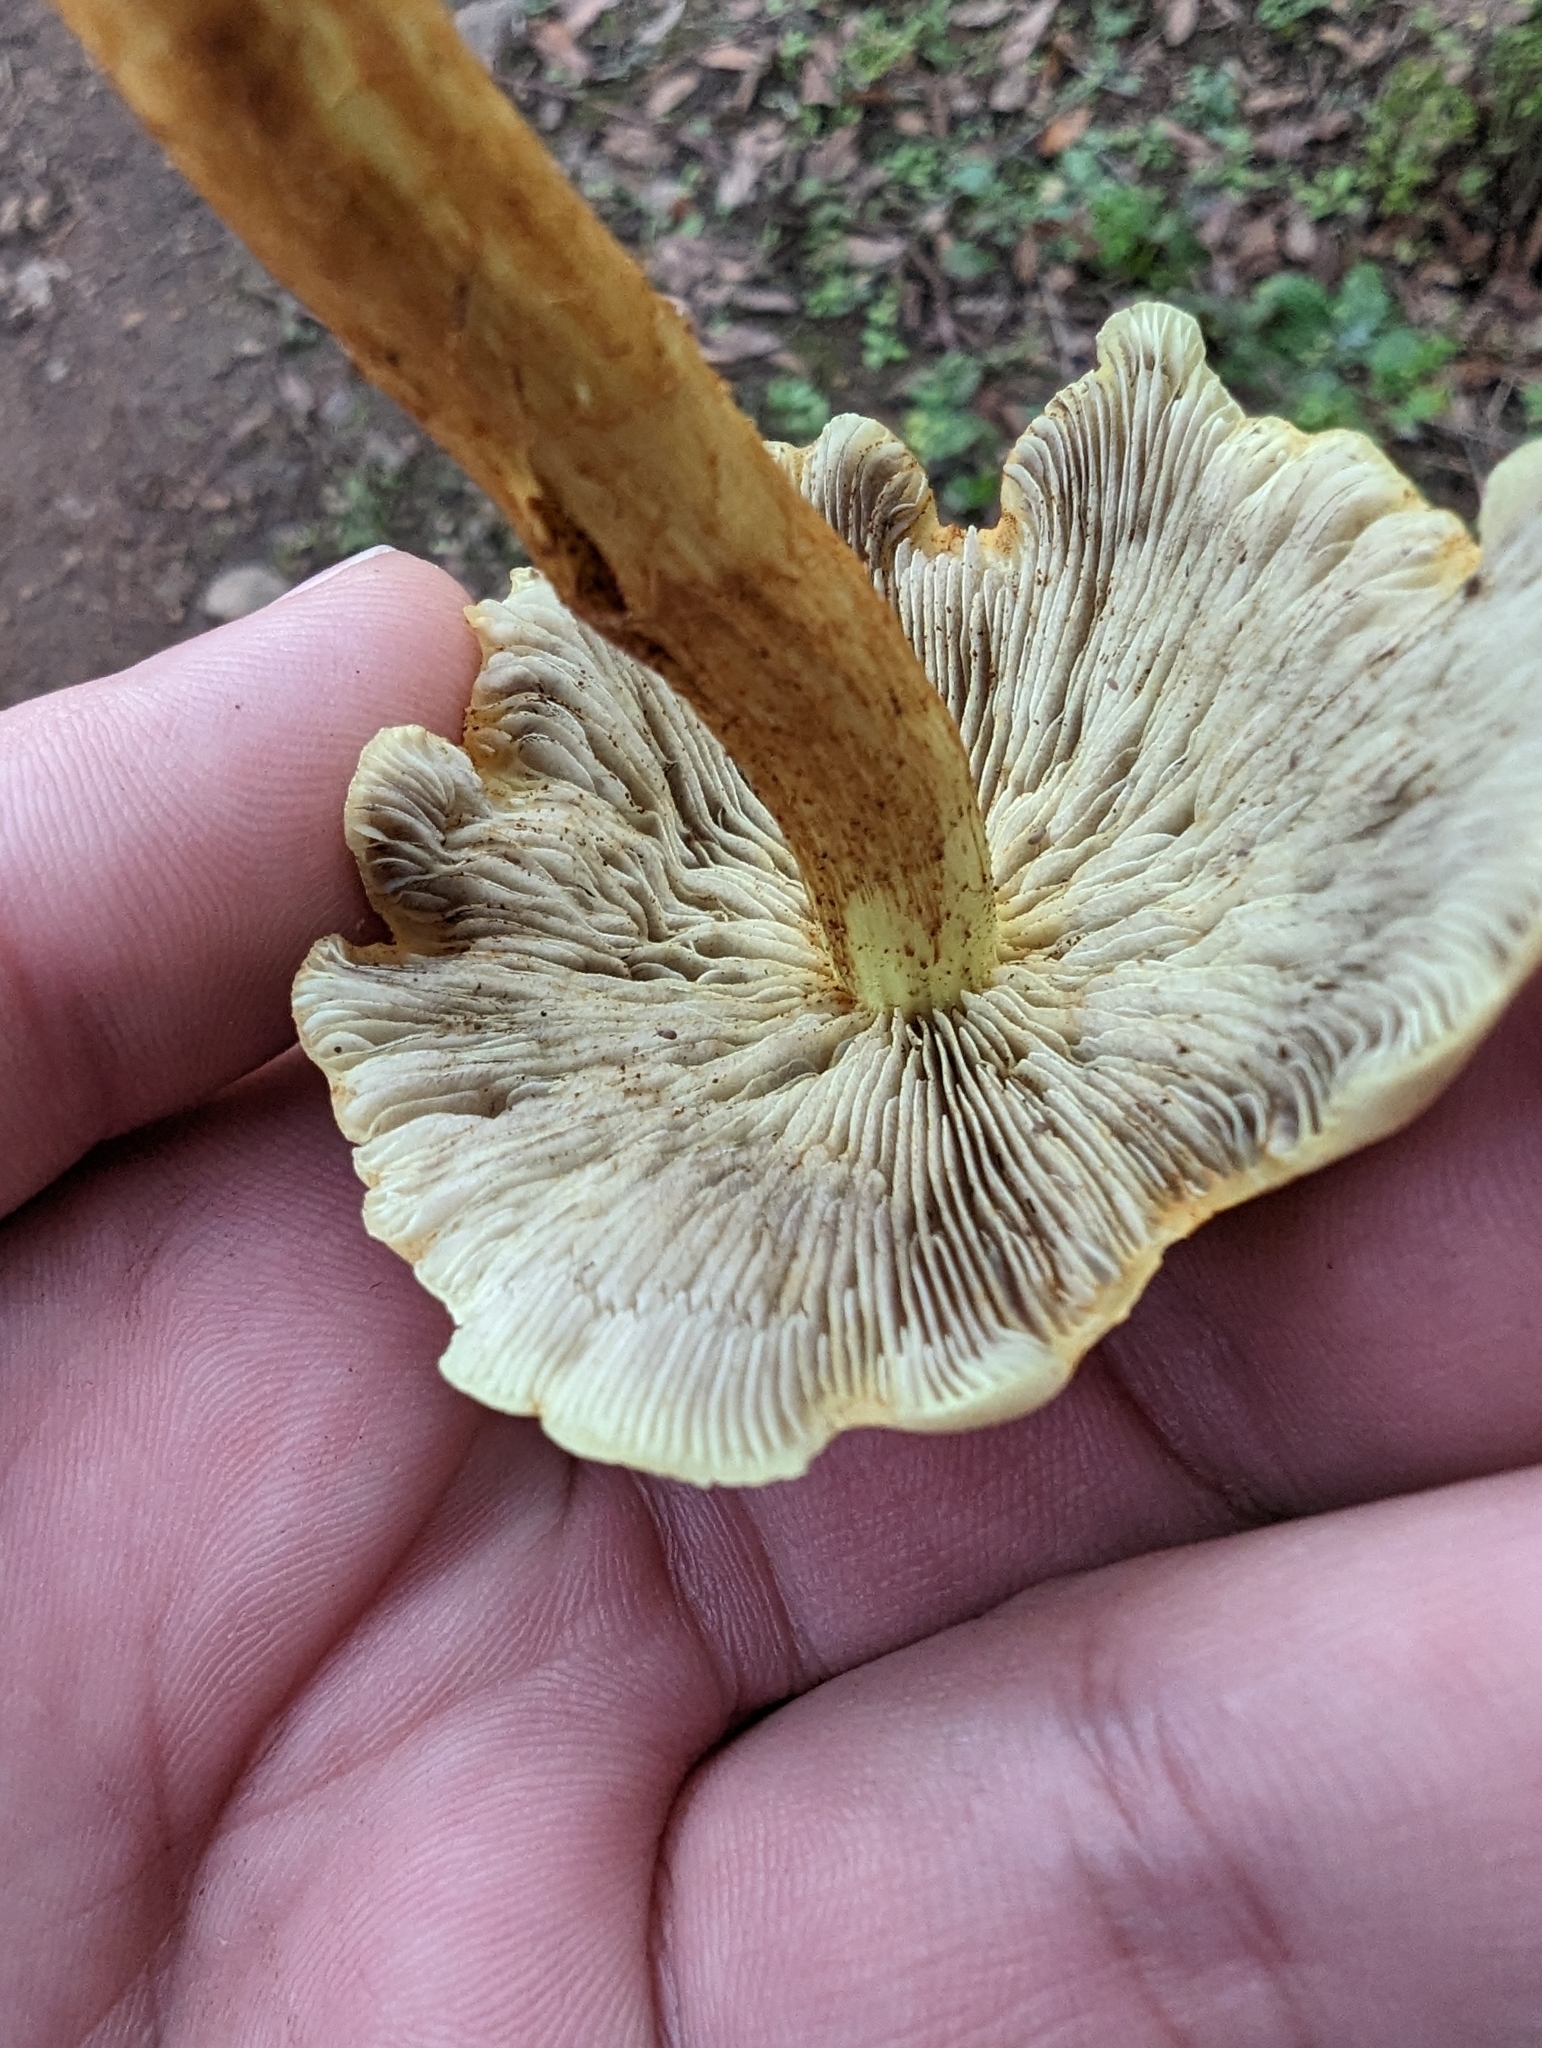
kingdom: Fungi
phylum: Basidiomycota
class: Agaricomycetes
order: Agaricales
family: Strophariaceae
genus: Hypholoma
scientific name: Hypholoma fasciculare
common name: Sulphur tuft
